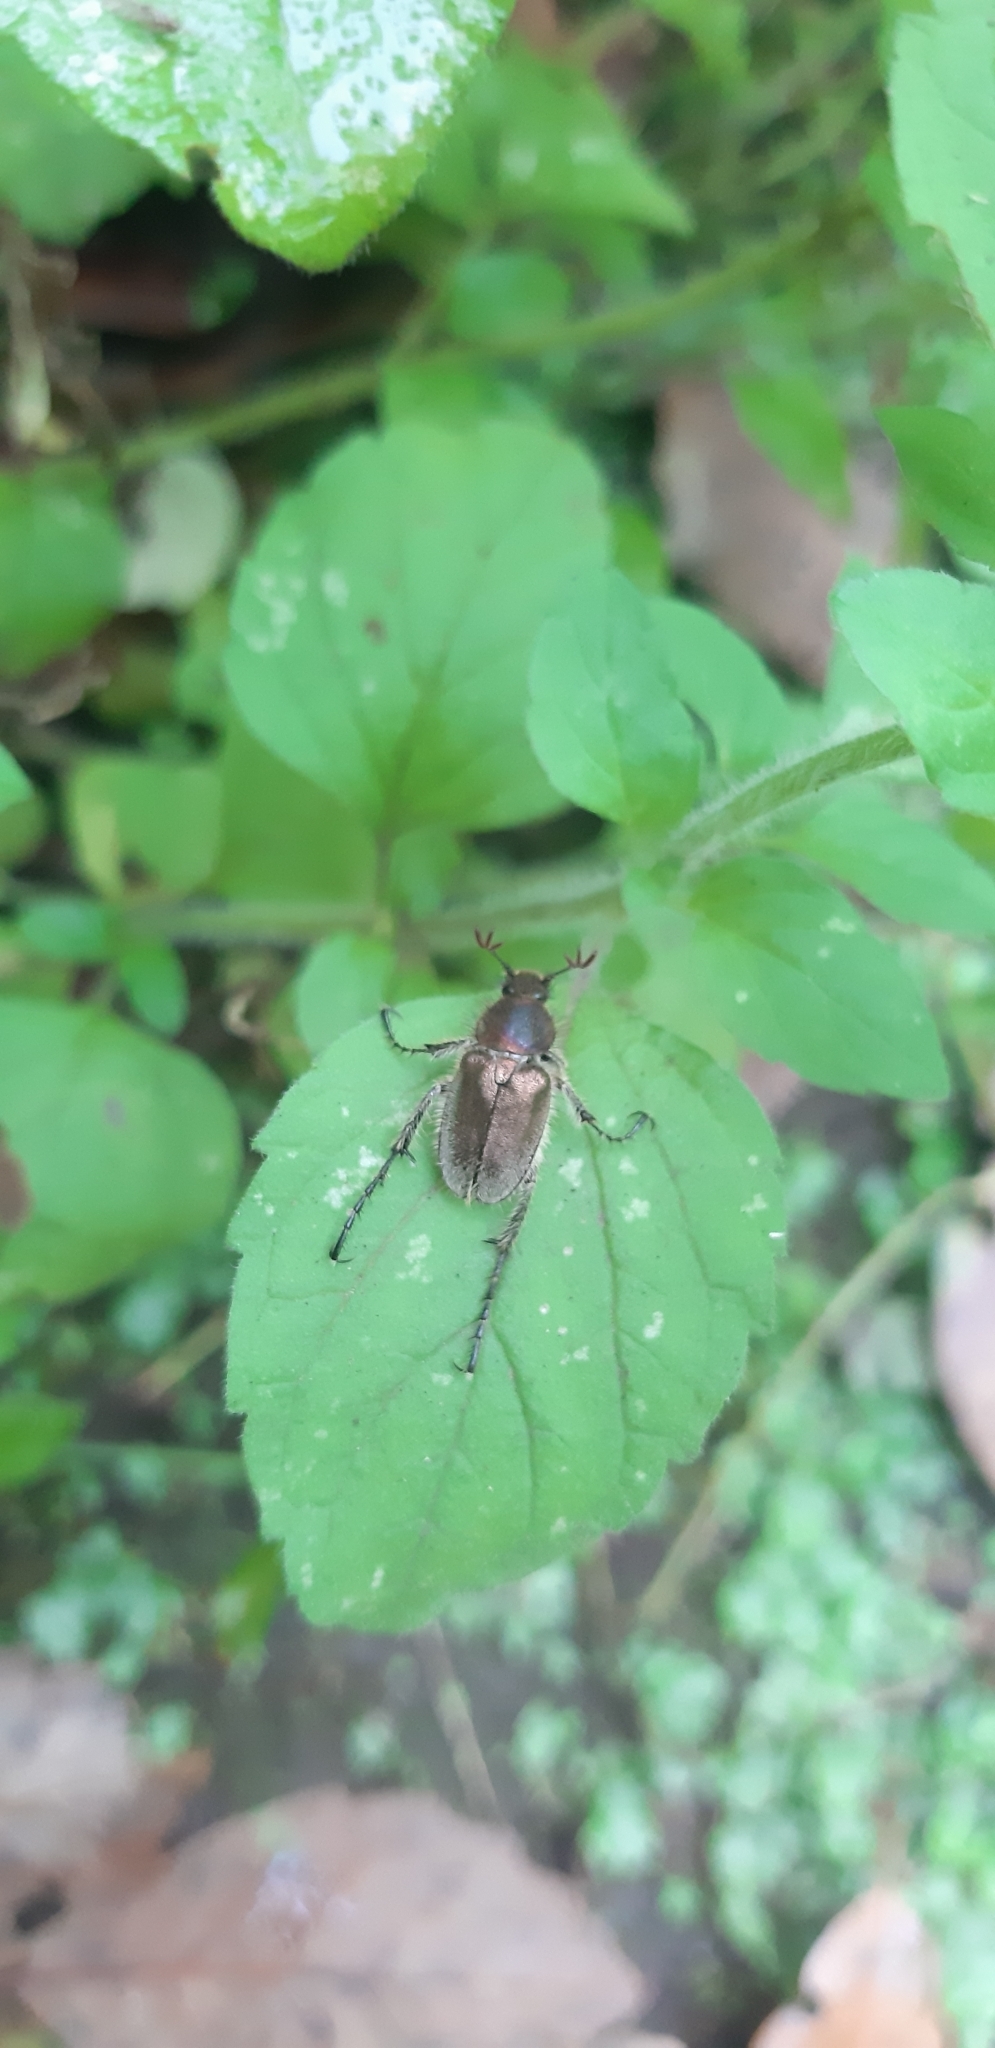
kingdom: Animalia
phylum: Arthropoda
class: Insecta
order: Coleoptera
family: Glaphyridae
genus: Amphicoma
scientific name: Amphicoma carceli
